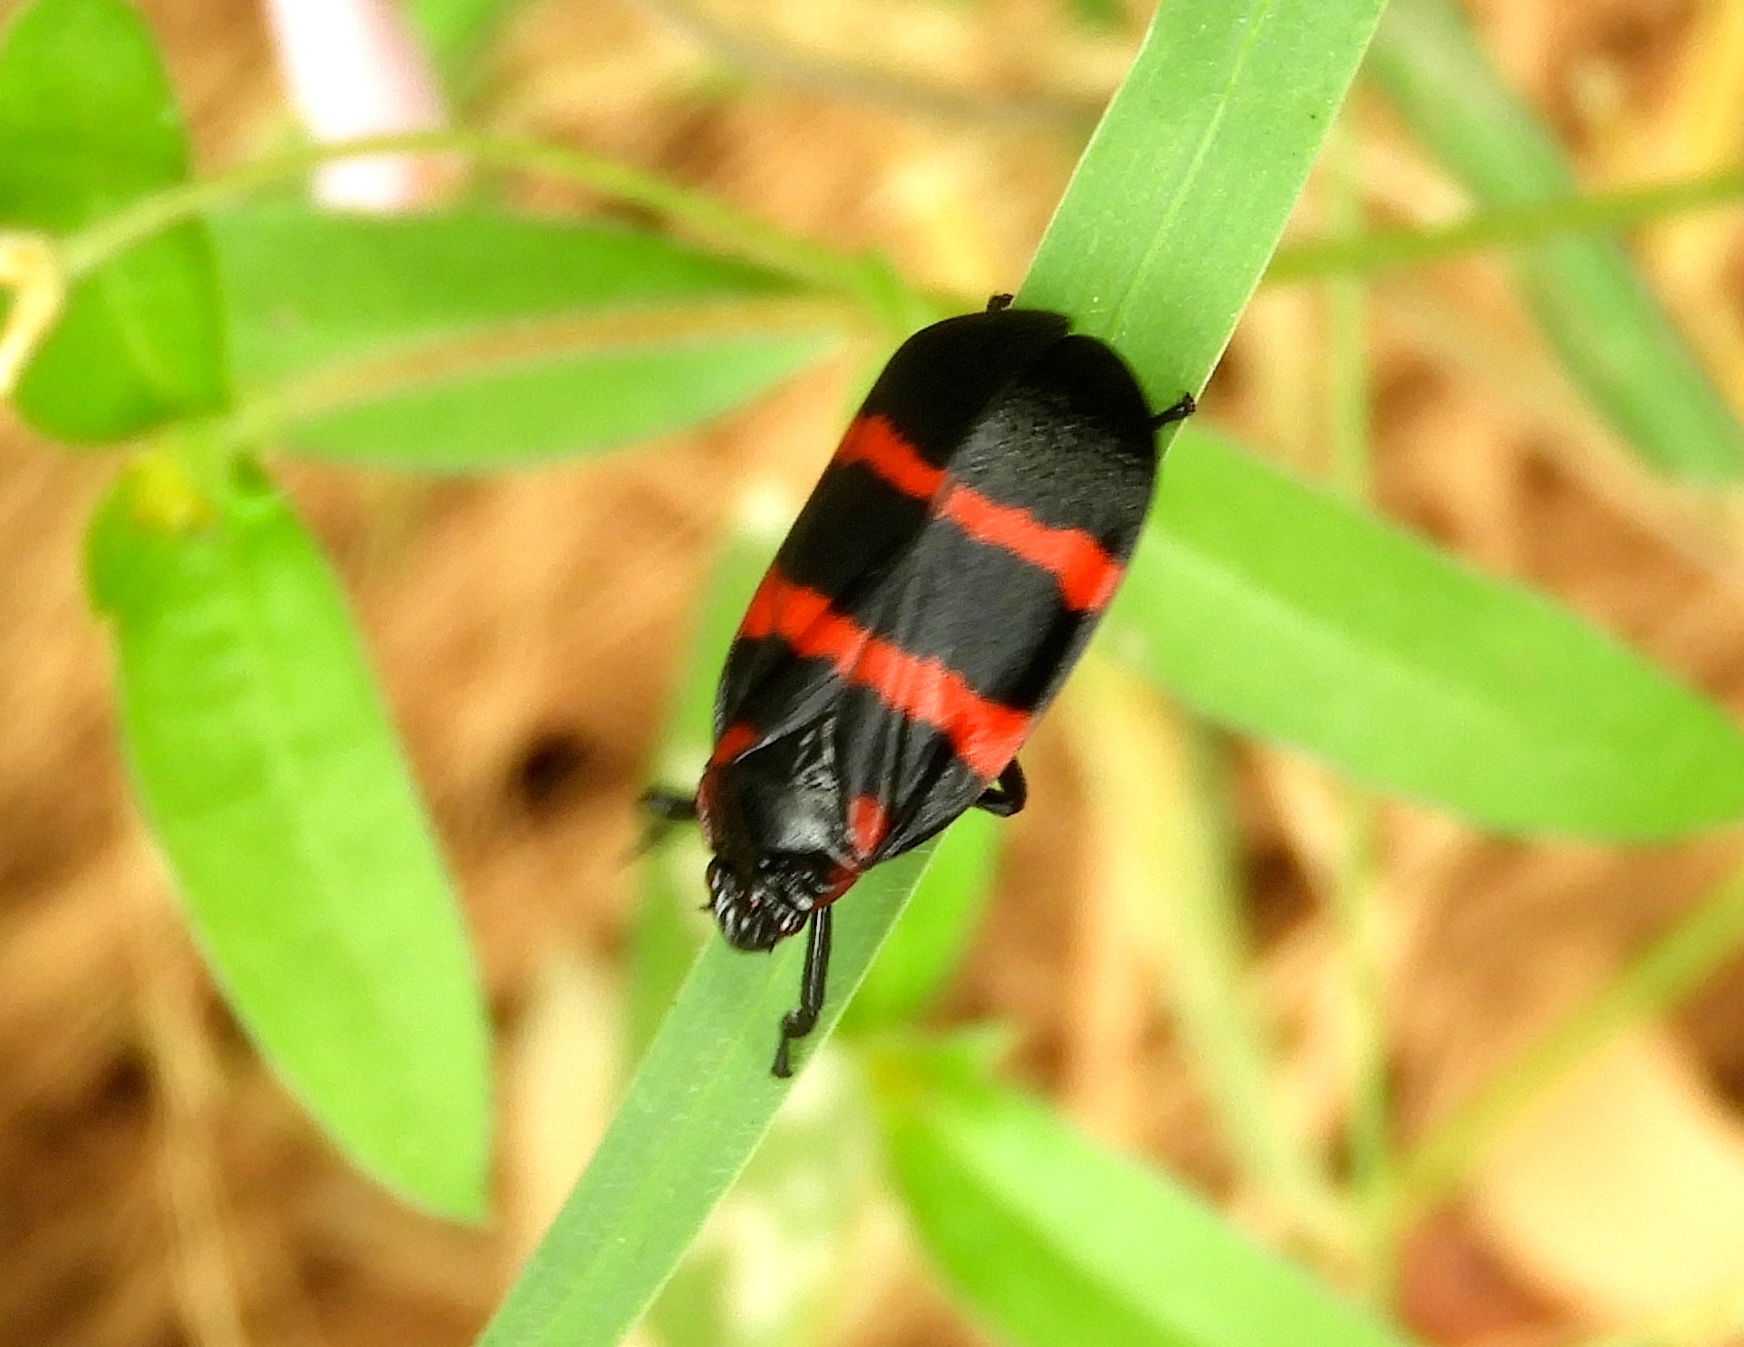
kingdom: Animalia
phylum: Arthropoda
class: Insecta
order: Hemiptera
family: Cercopidae
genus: Huaina
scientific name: Huaina inca
